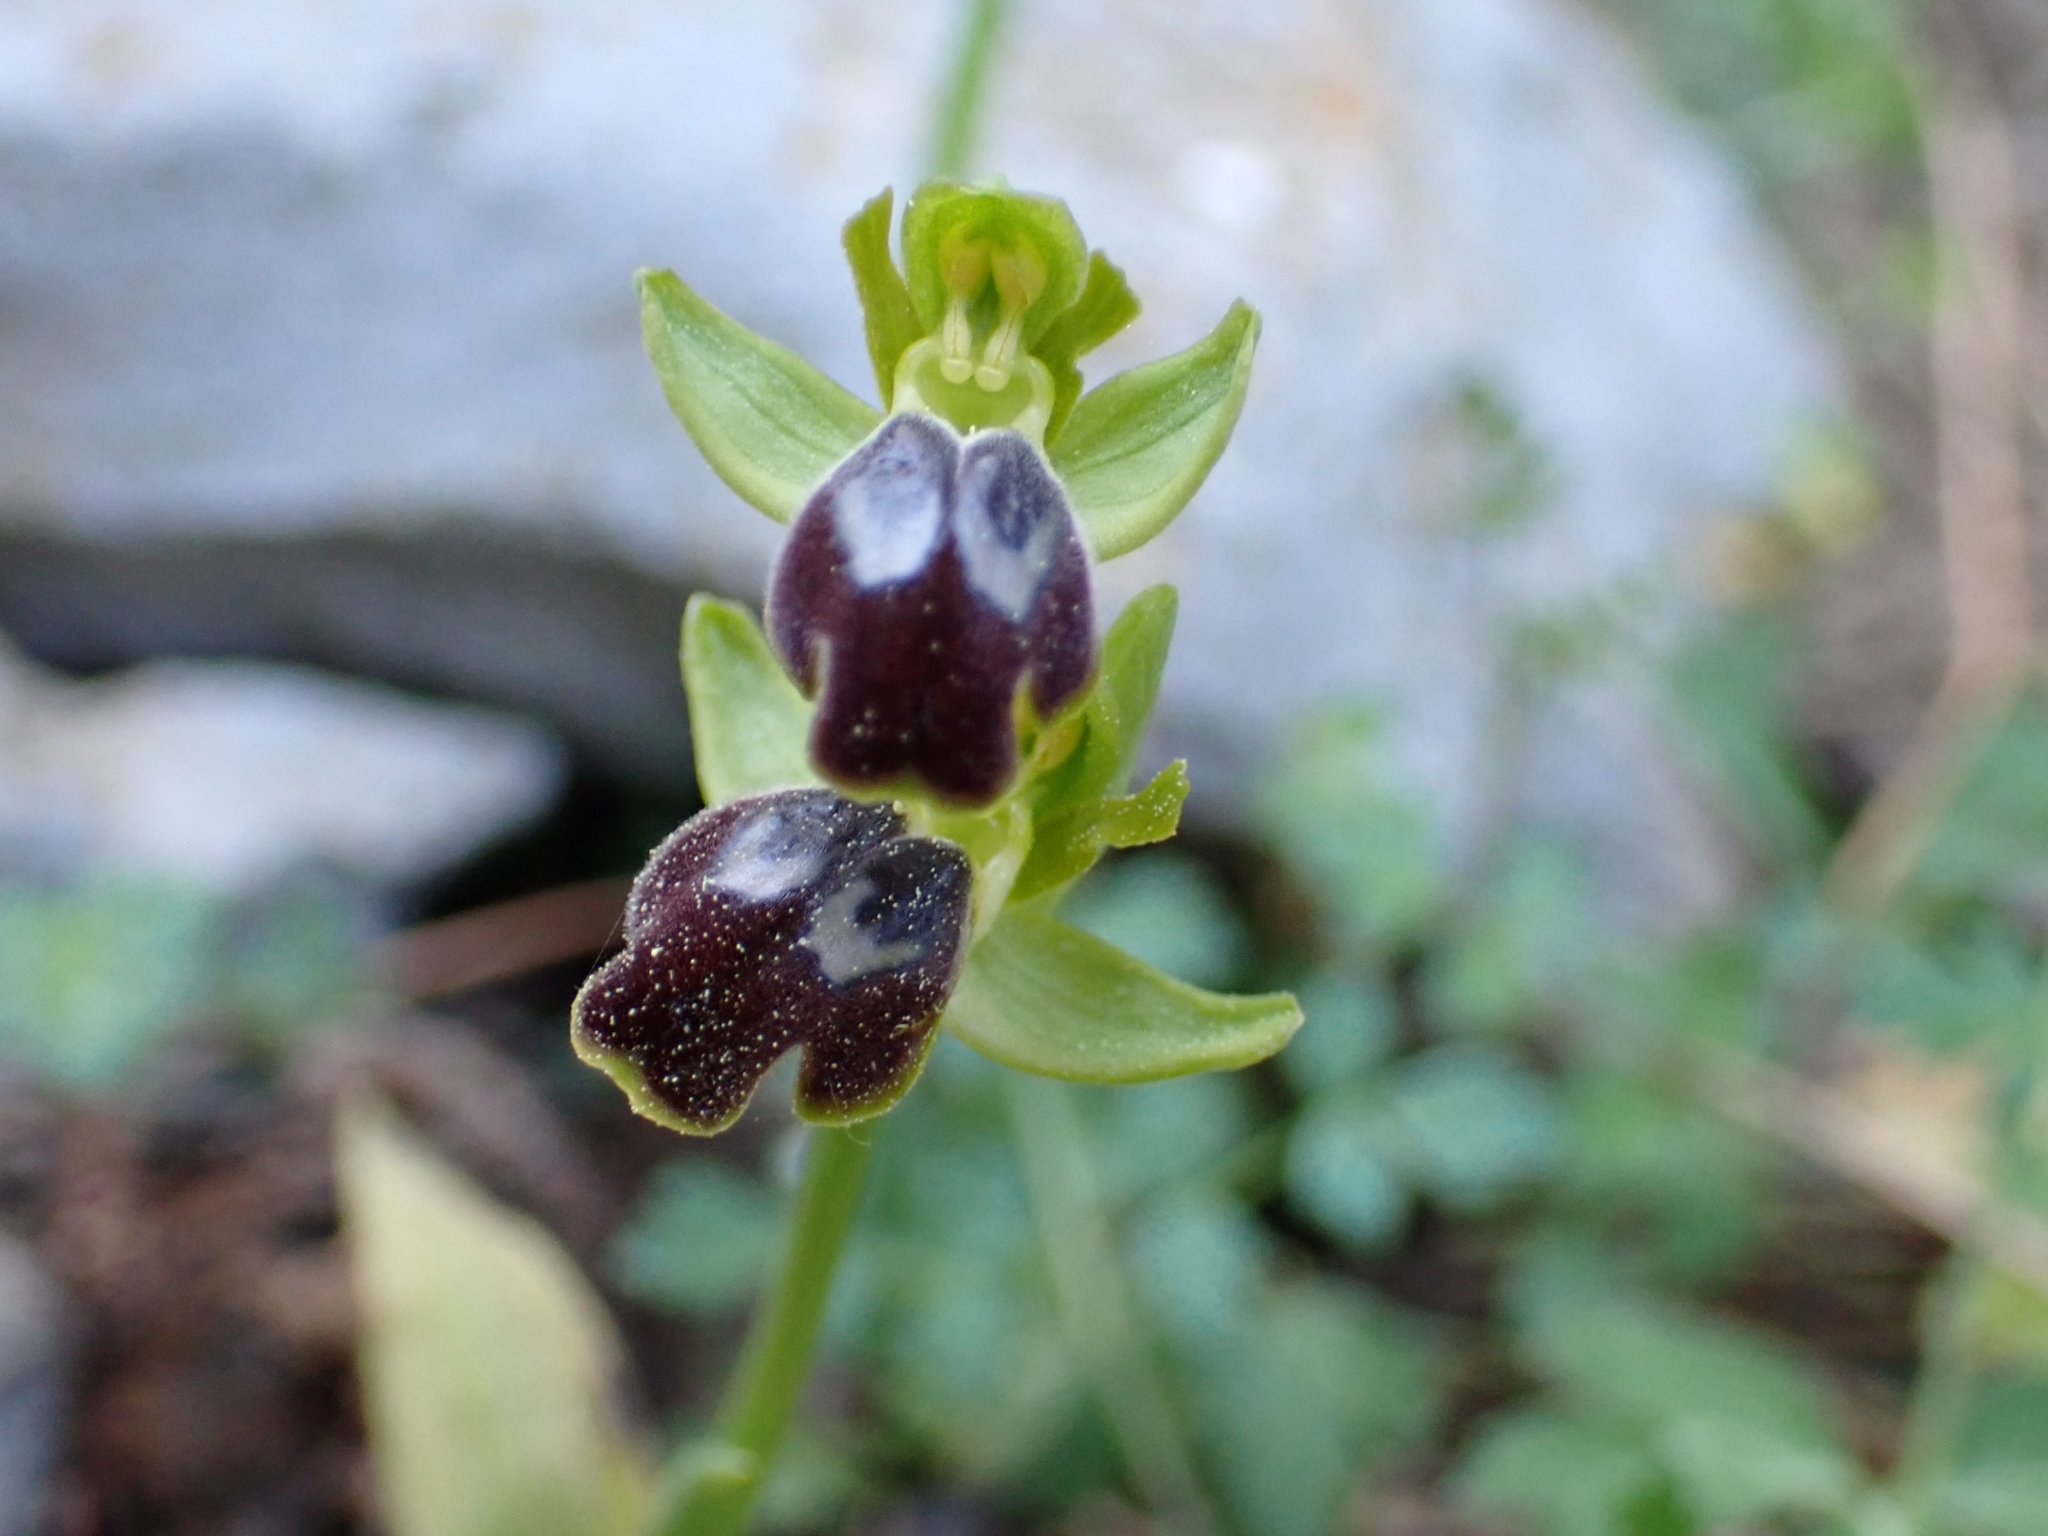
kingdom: Plantae
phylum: Tracheophyta
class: Liliopsida
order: Asparagales
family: Orchidaceae
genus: Ophrys
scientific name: Ophrys fusca
